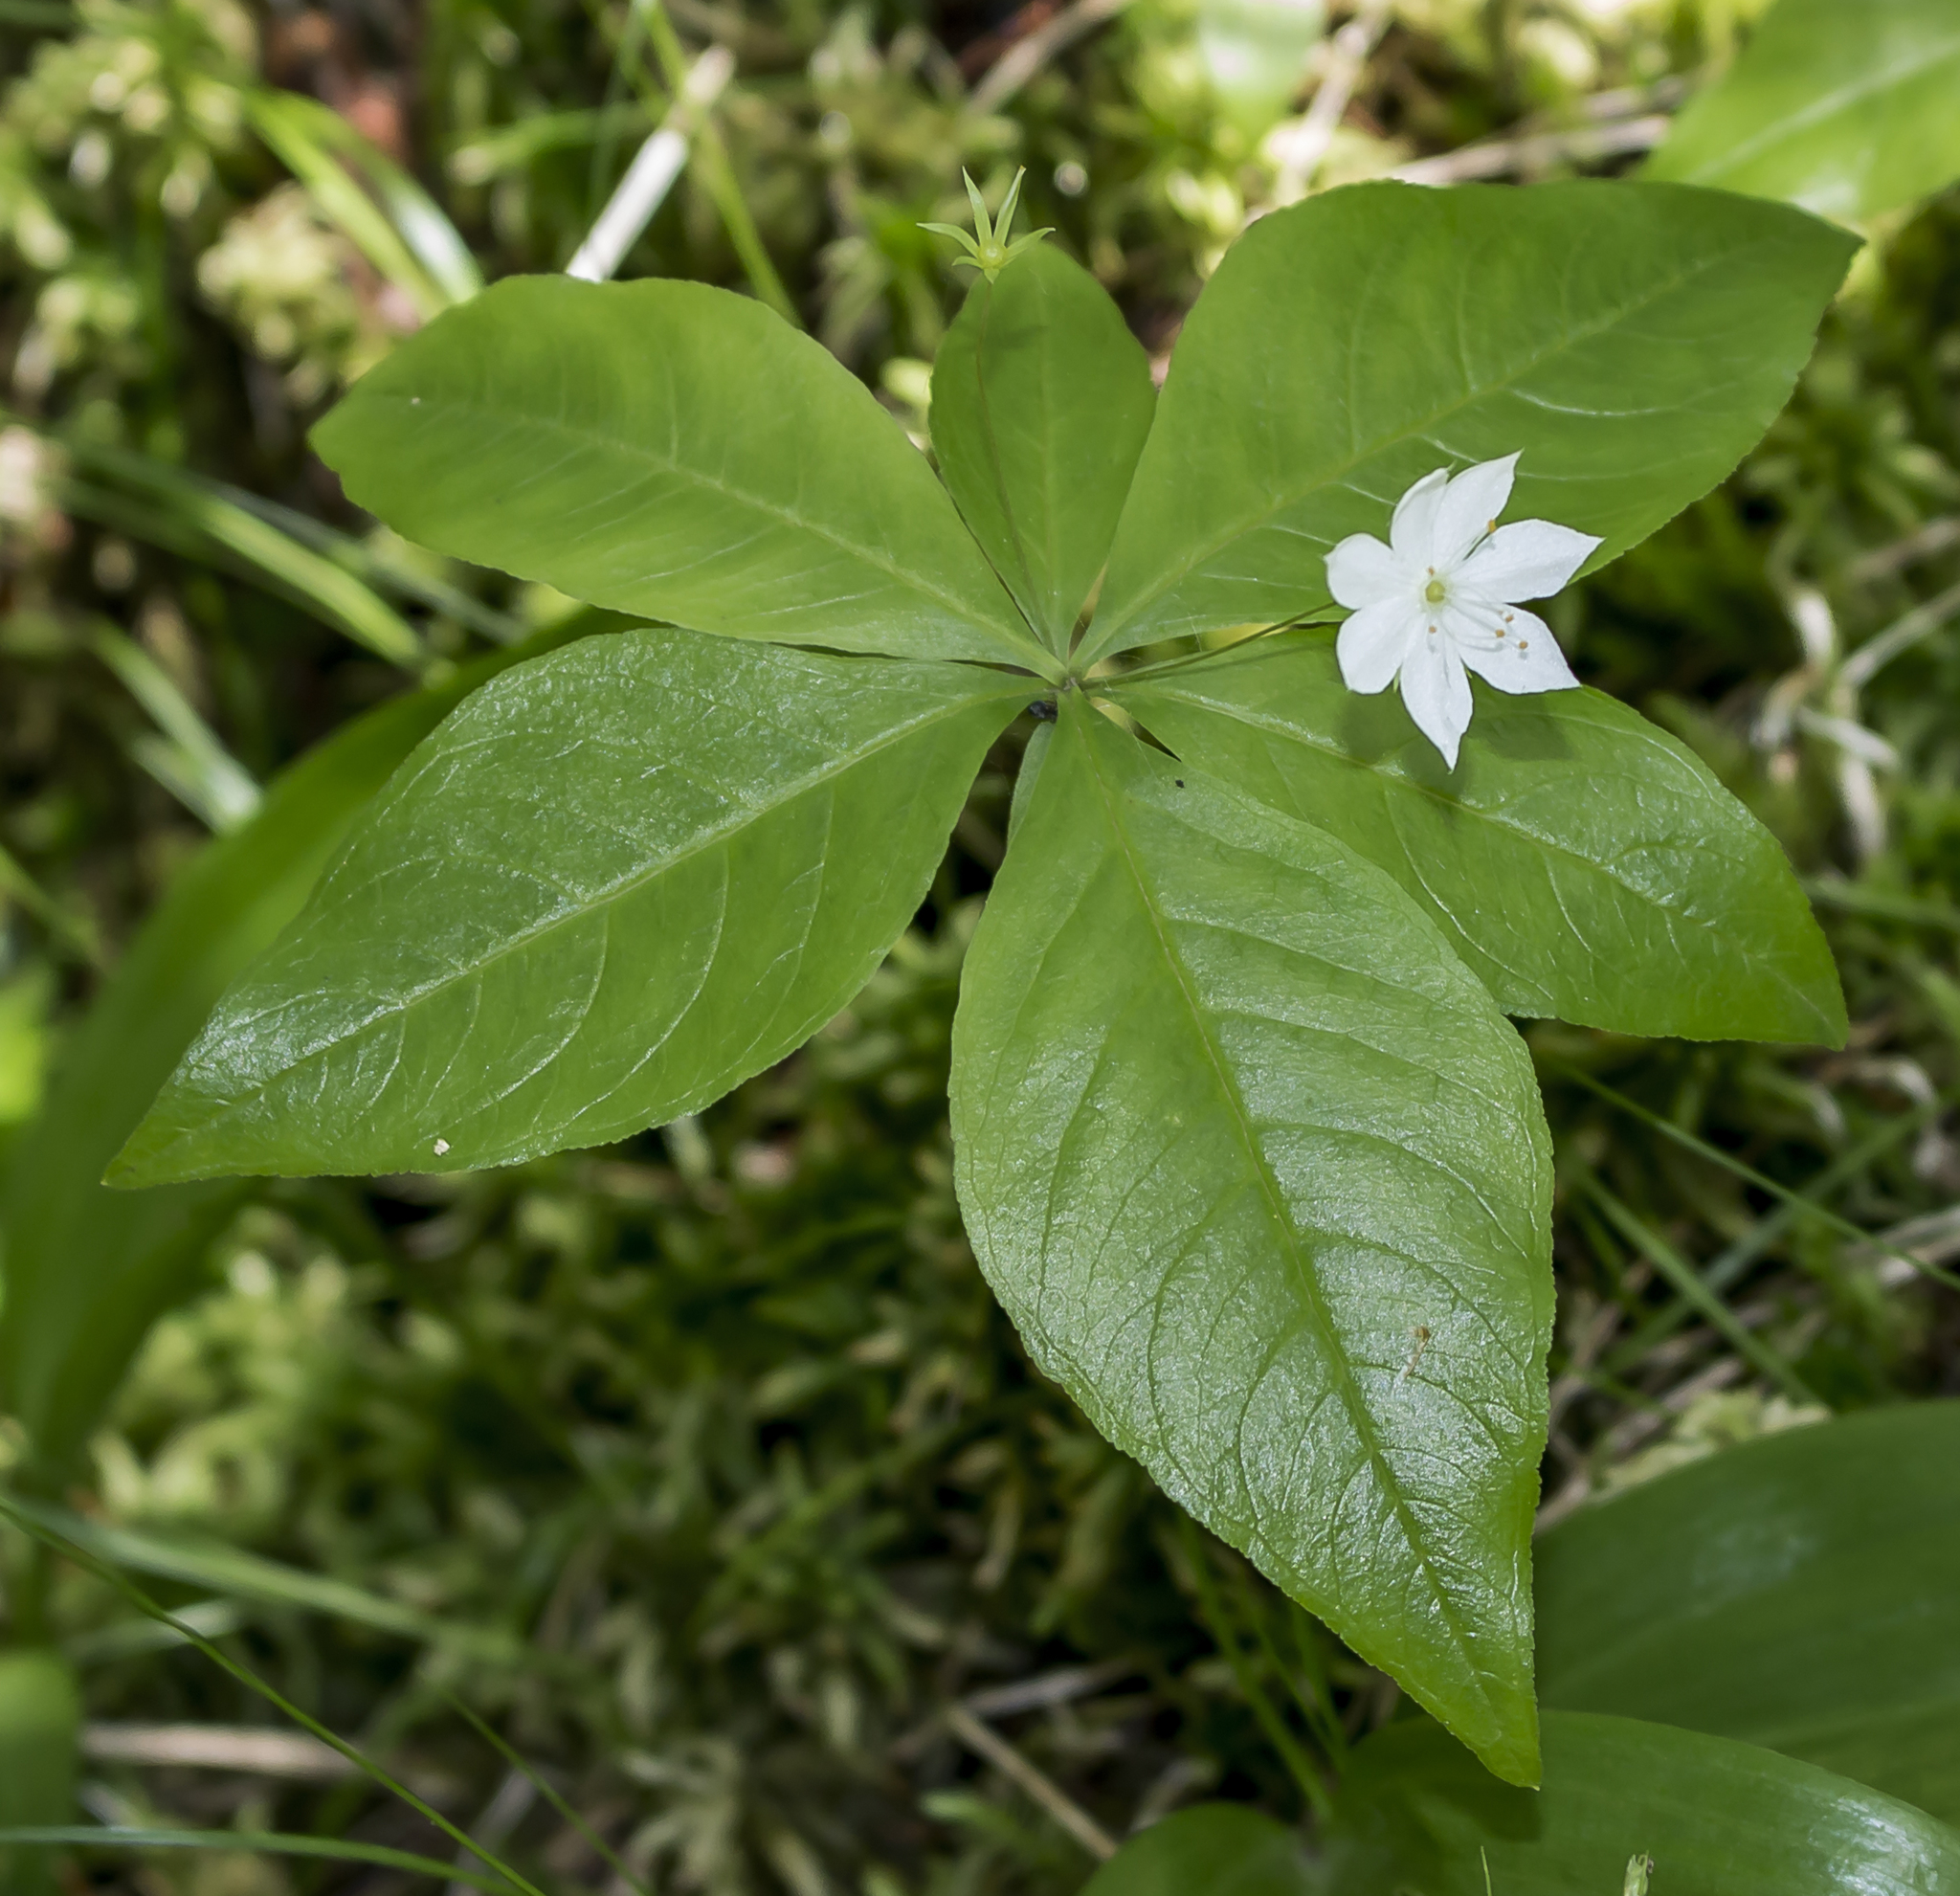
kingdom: Plantae
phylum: Tracheophyta
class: Magnoliopsida
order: Ericales
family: Primulaceae
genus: Lysimachia
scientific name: Lysimachia borealis
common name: American starflower
